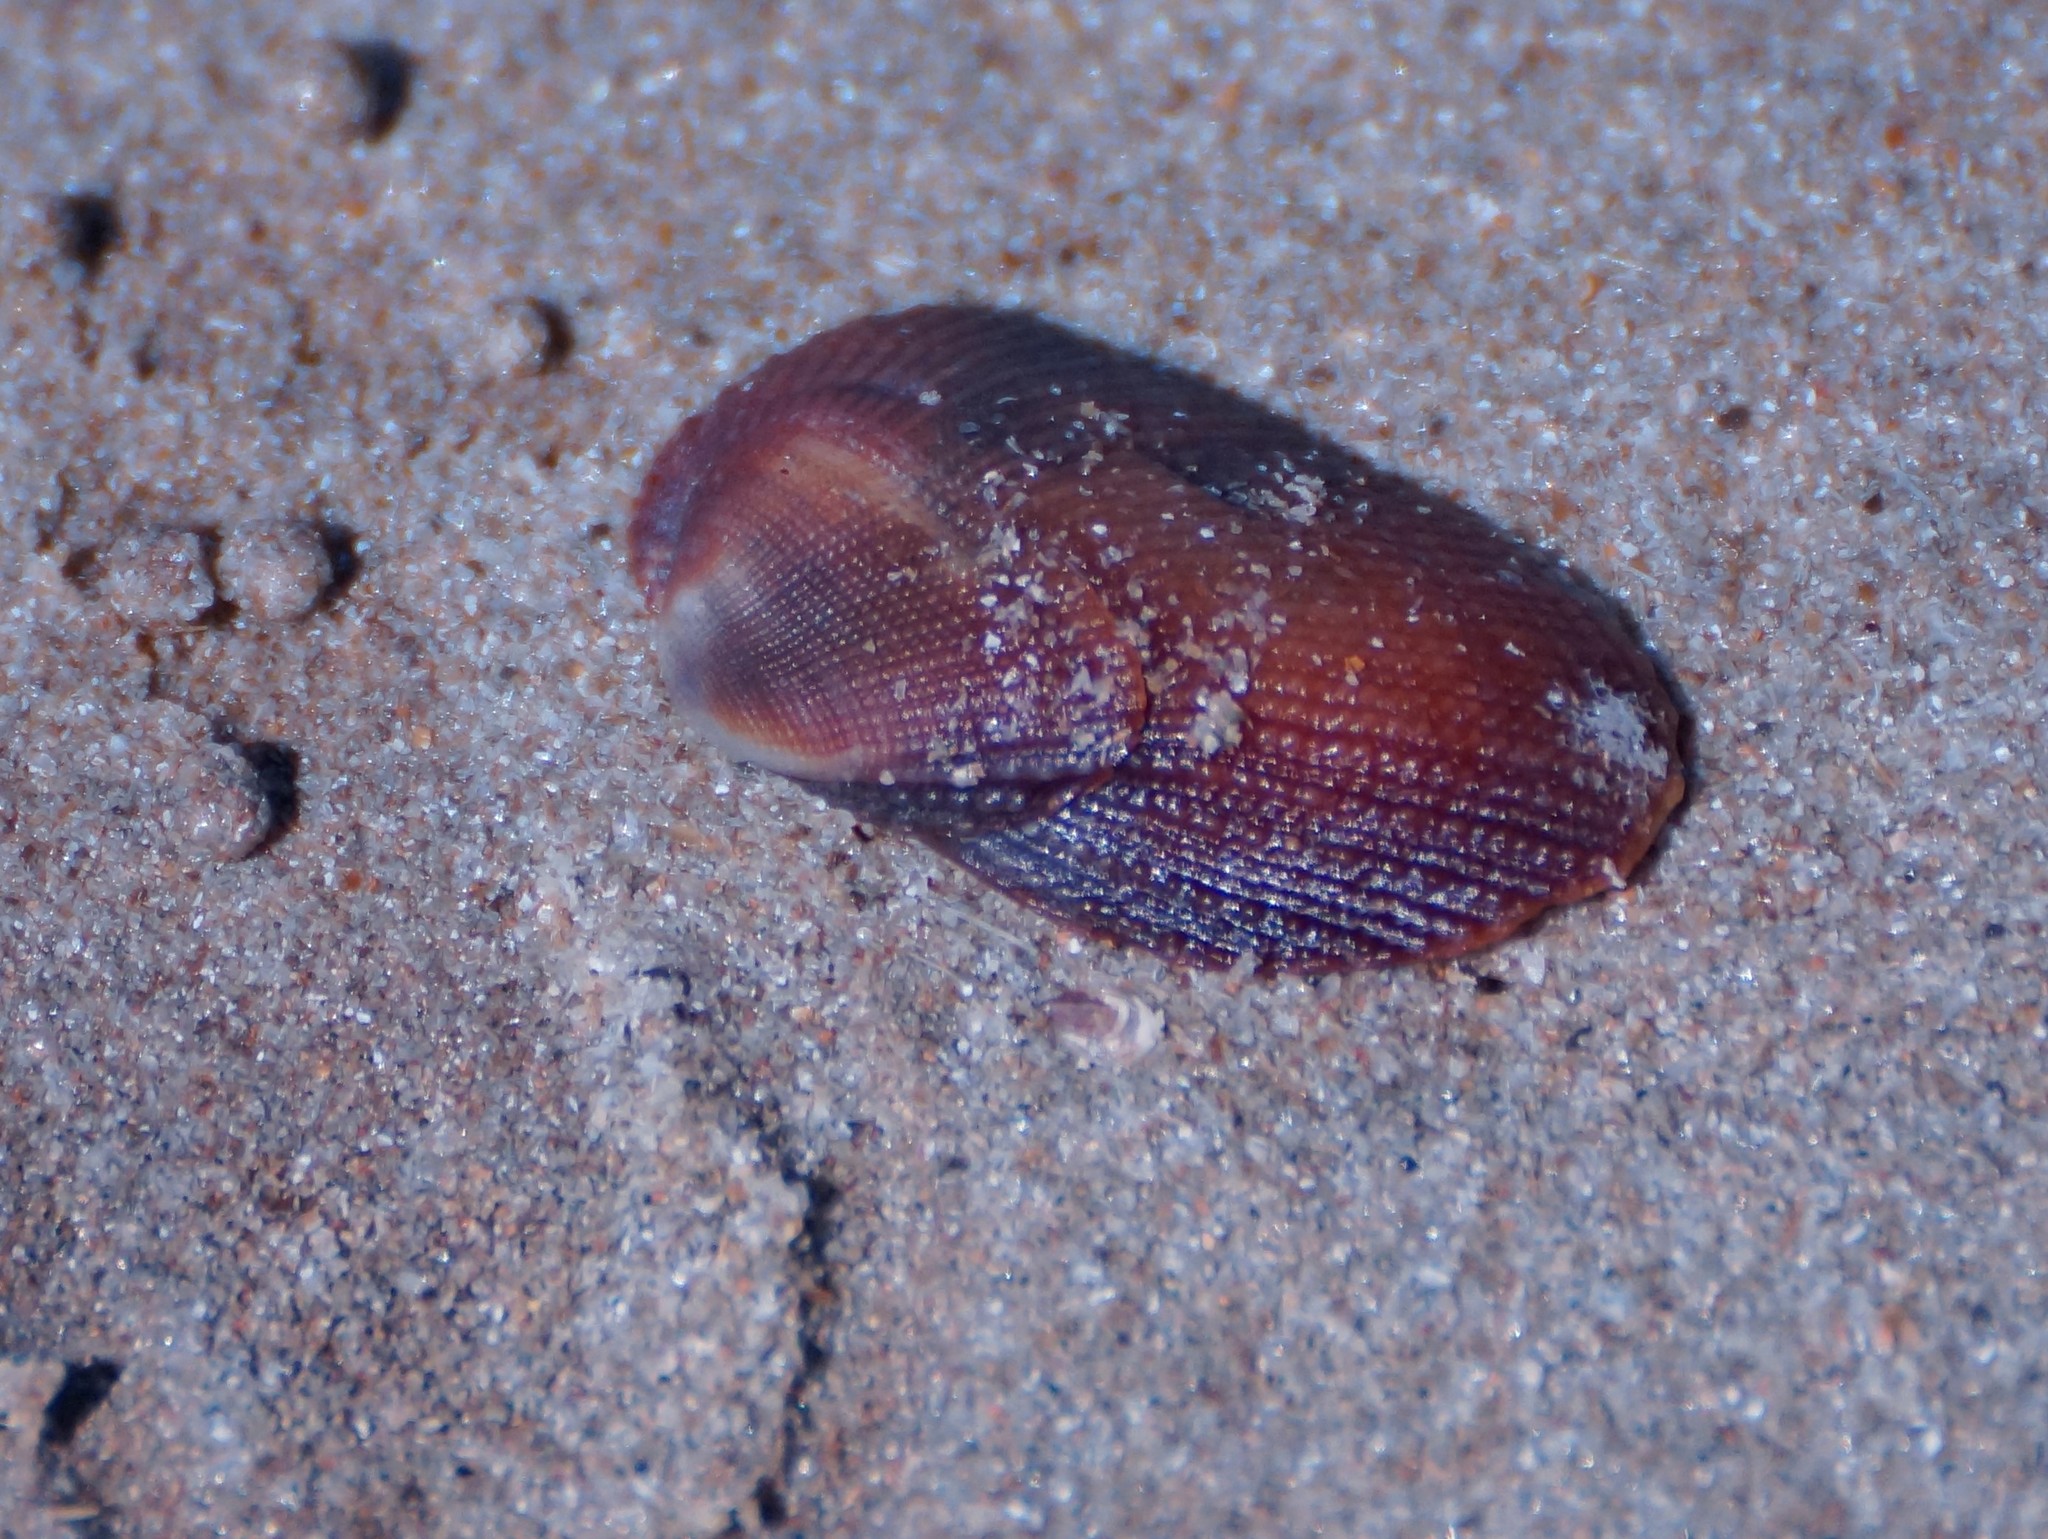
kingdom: Animalia
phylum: Mollusca
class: Bivalvia
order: Arcida
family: Arcidae
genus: Barbatia
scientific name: Barbatia amygdalumtostum
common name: Burnt-almond ark
